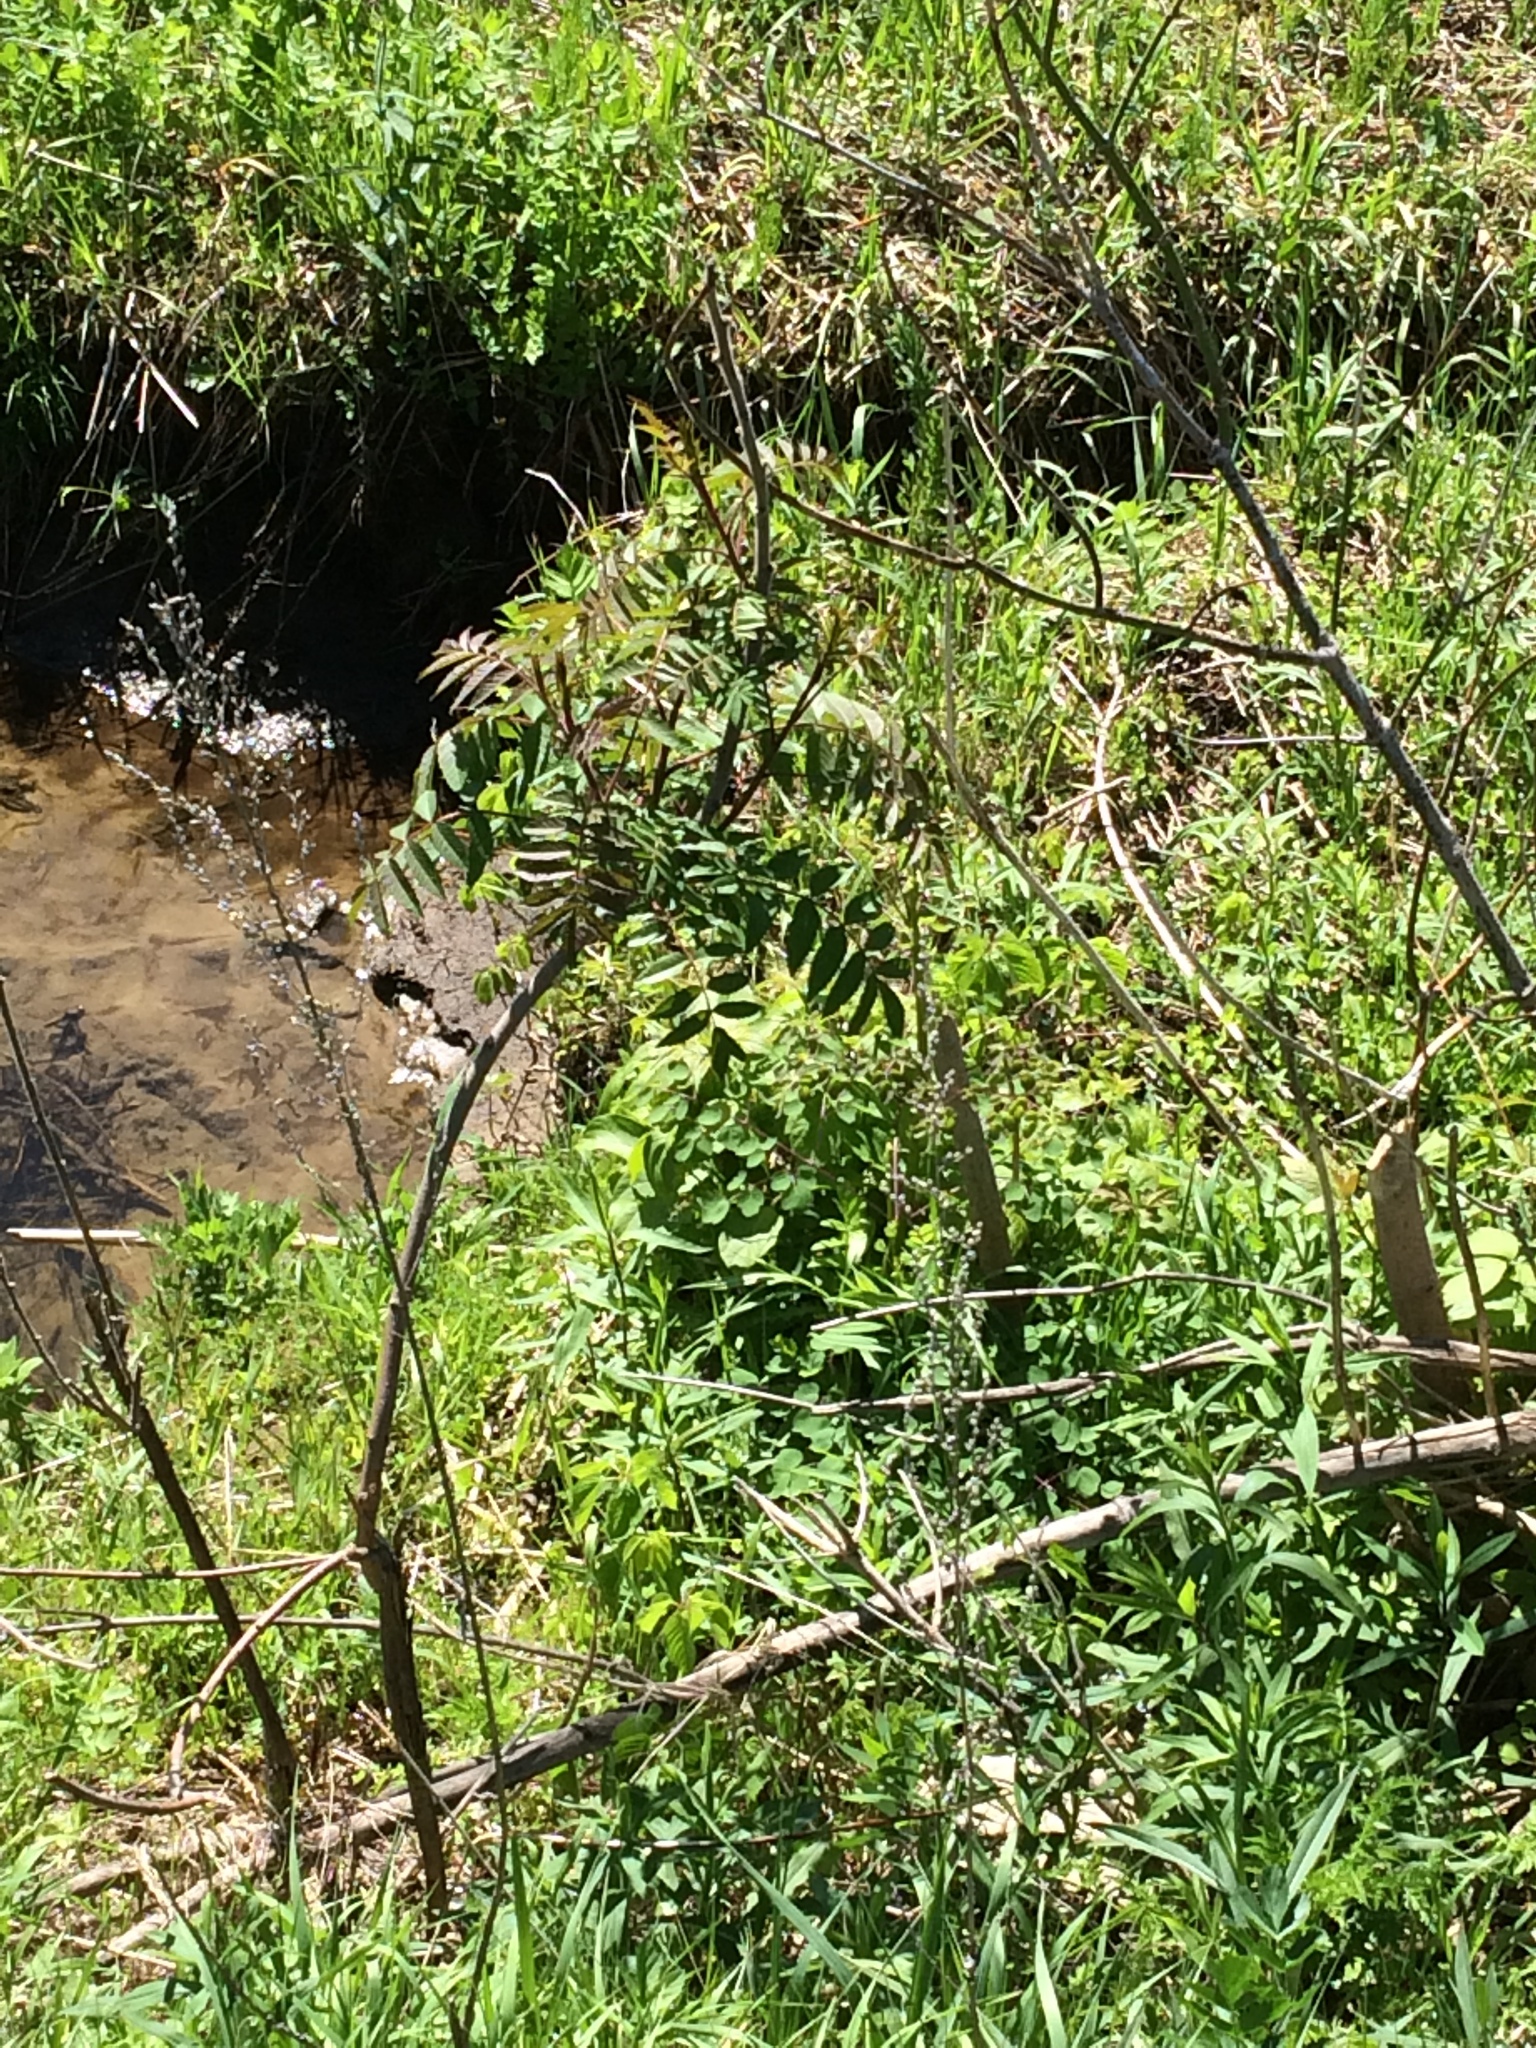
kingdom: Plantae
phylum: Tracheophyta
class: Magnoliopsida
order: Sapindales
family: Anacardiaceae
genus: Rhus
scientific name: Rhus typhina
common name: Staghorn sumac
